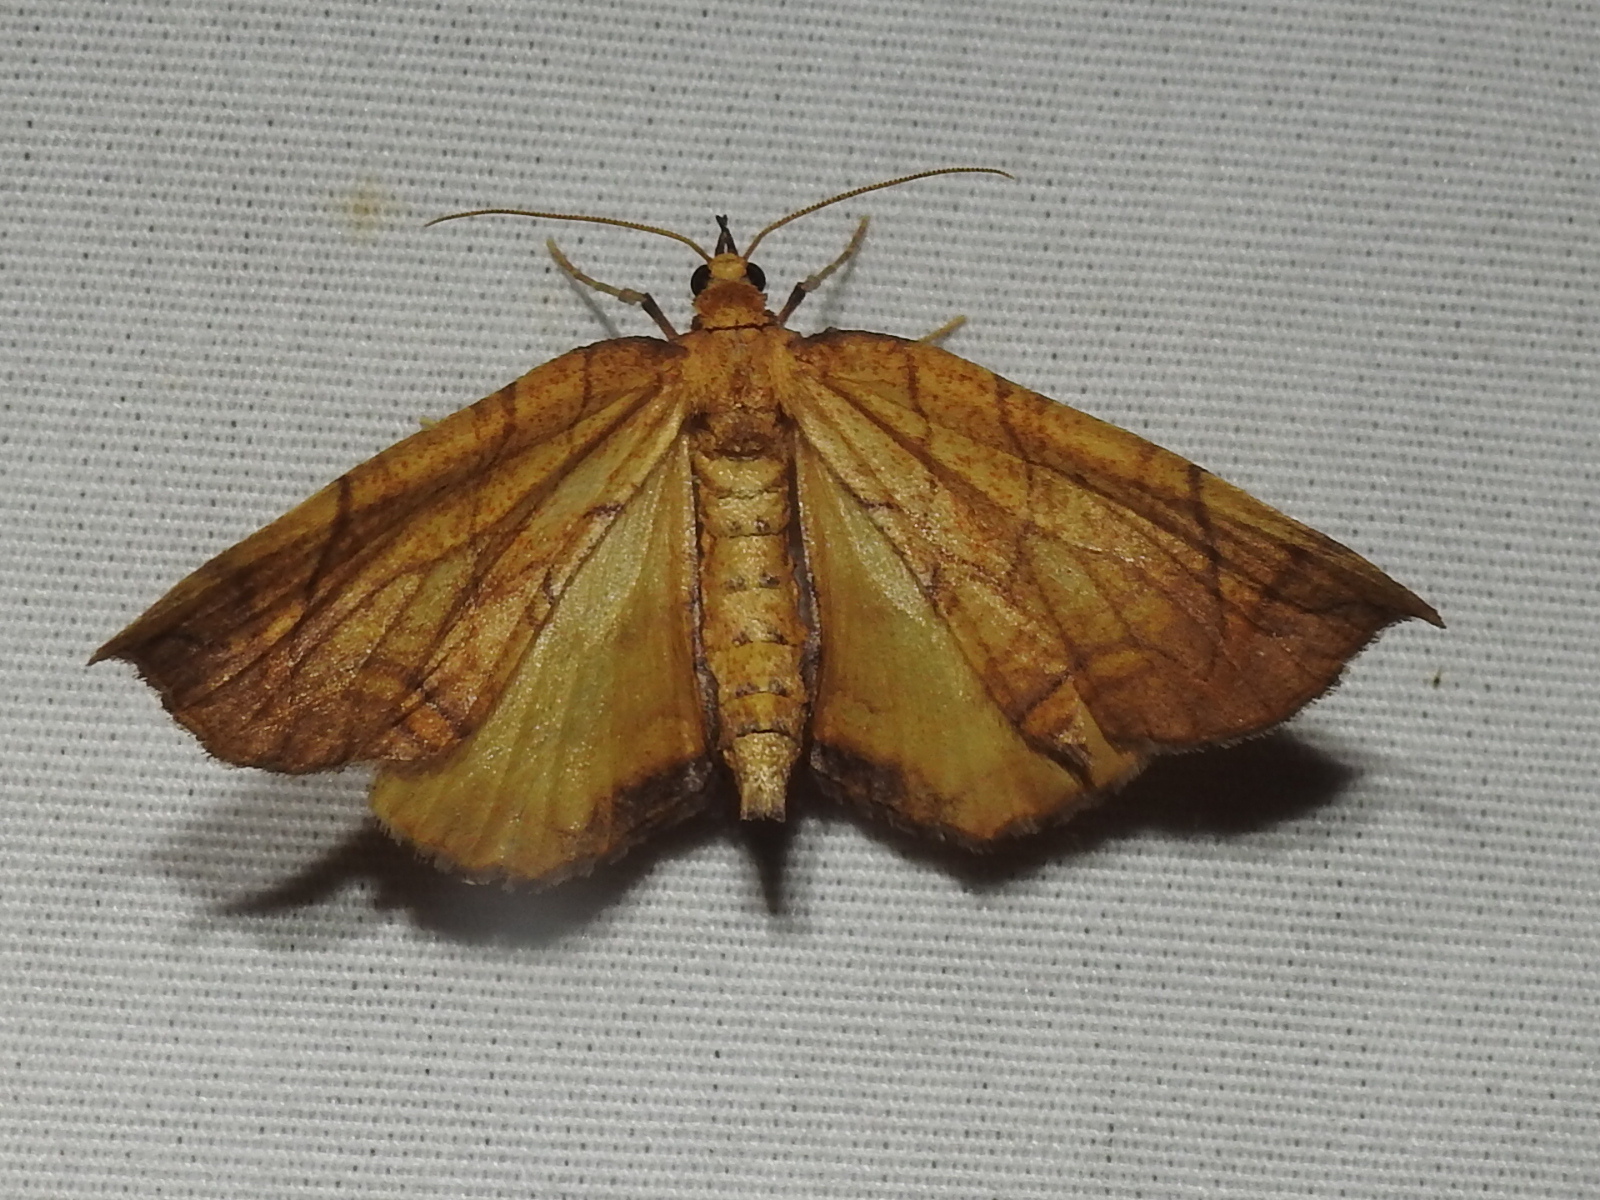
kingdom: Animalia
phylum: Arthropoda
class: Insecta
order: Lepidoptera
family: Geometridae
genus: Eulithis
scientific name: Eulithis
